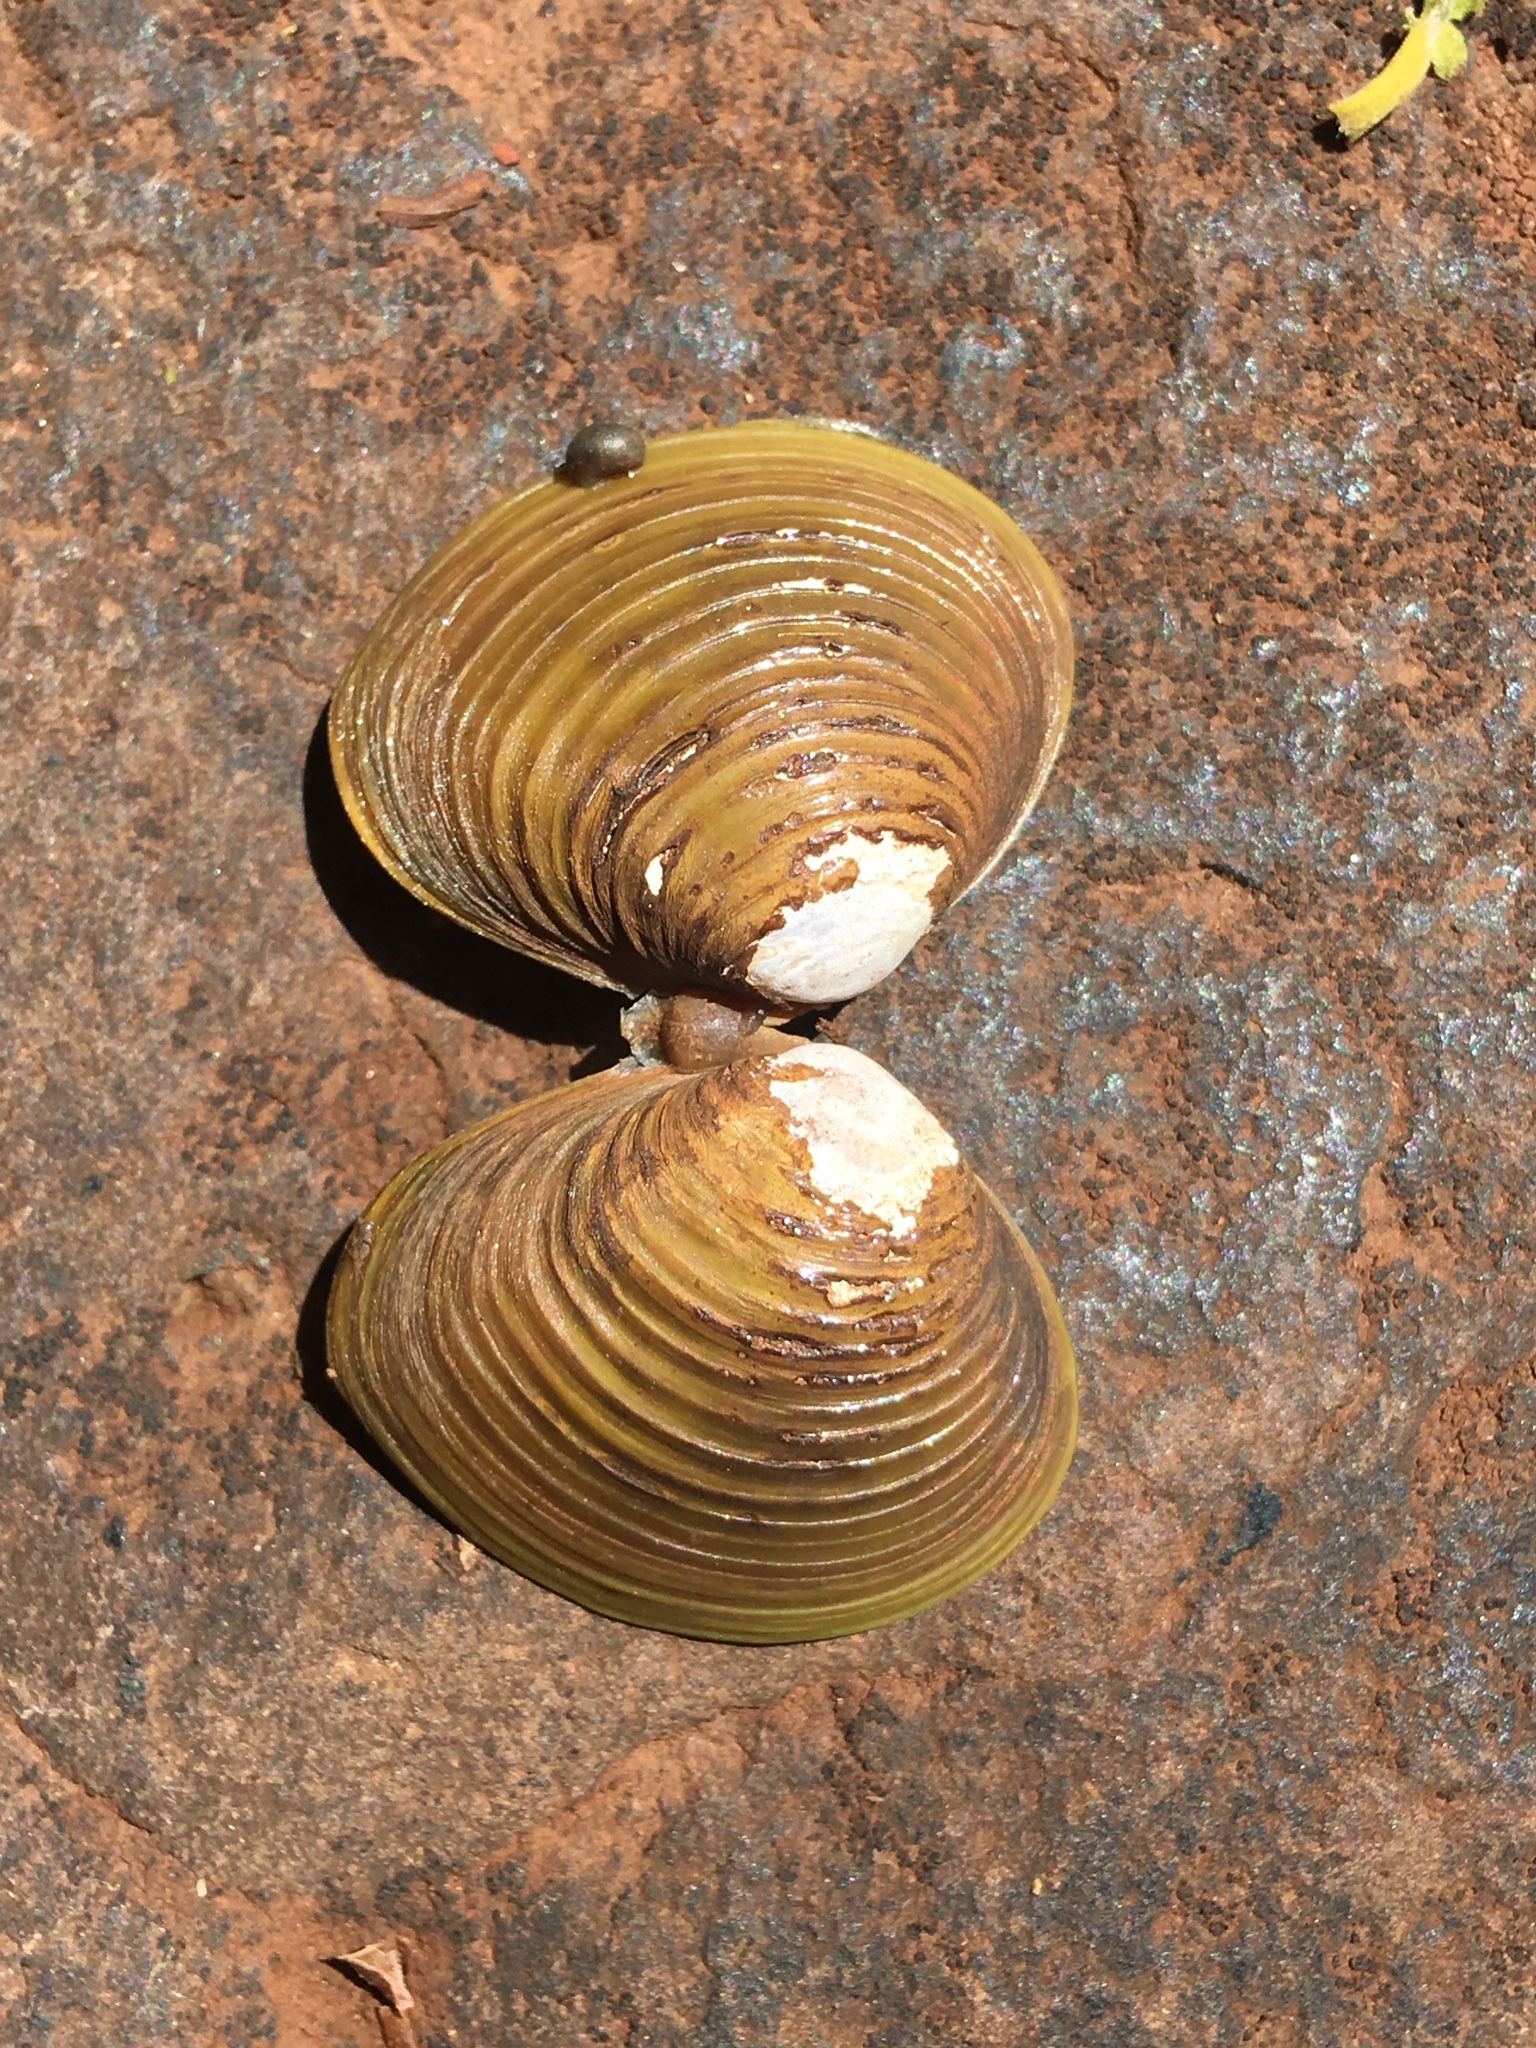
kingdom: Animalia
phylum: Mollusca
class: Bivalvia
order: Venerida
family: Cyrenidae
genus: Corbicula
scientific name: Corbicula fluminea
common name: Asian clam
